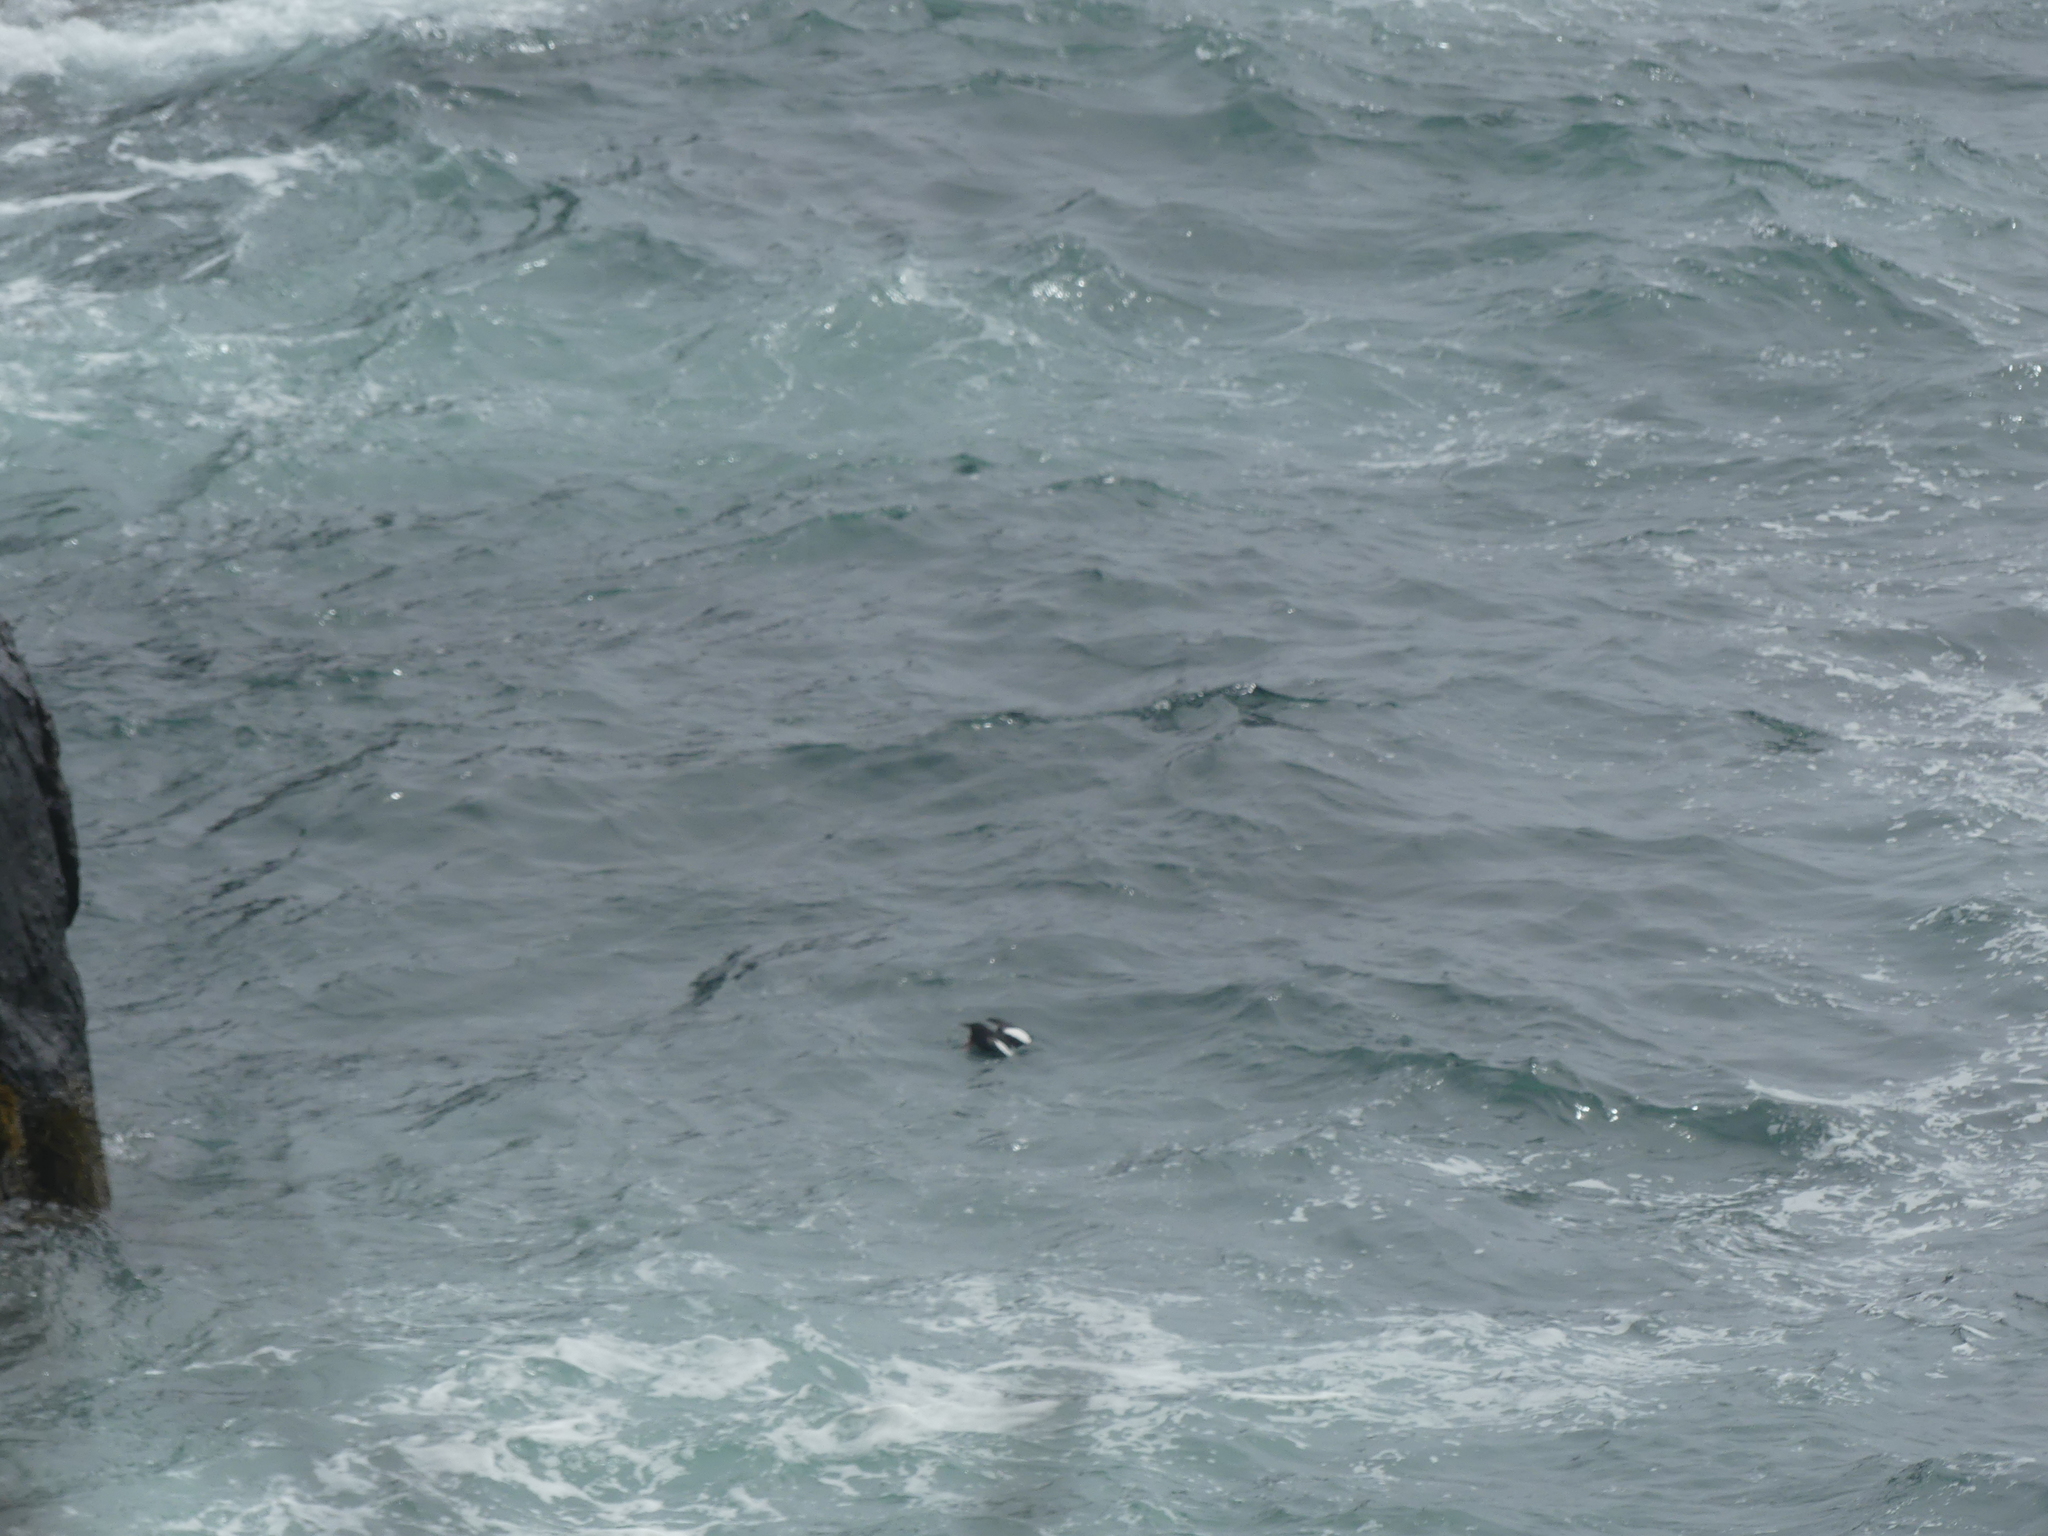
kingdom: Animalia
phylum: Chordata
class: Aves
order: Charadriiformes
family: Alcidae
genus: Cepphus
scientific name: Cepphus grylle
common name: Black guillemot
